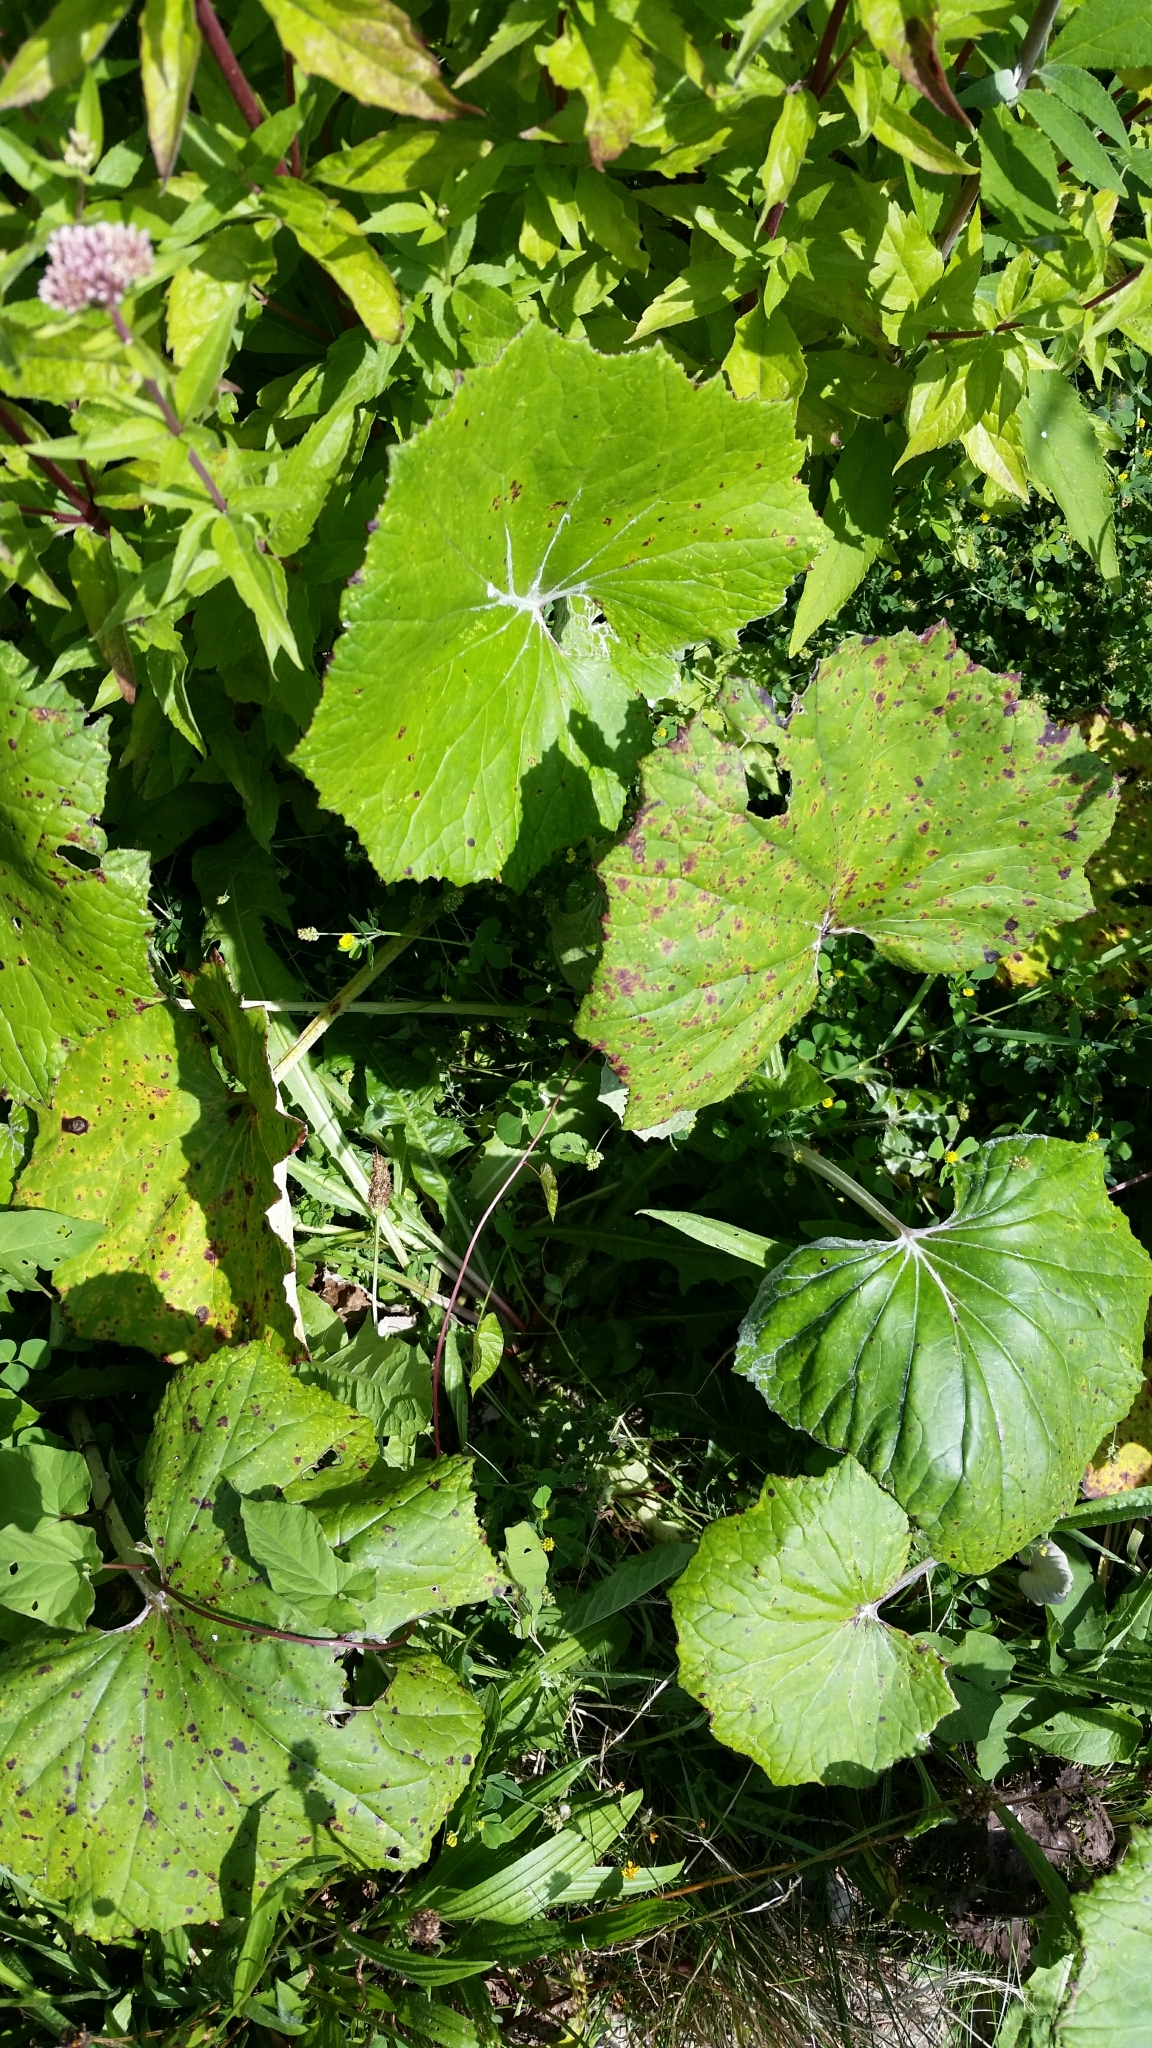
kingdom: Plantae
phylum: Tracheophyta
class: Magnoliopsida
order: Asterales
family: Asteraceae
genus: Tussilago
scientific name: Tussilago farfara
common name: Coltsfoot
